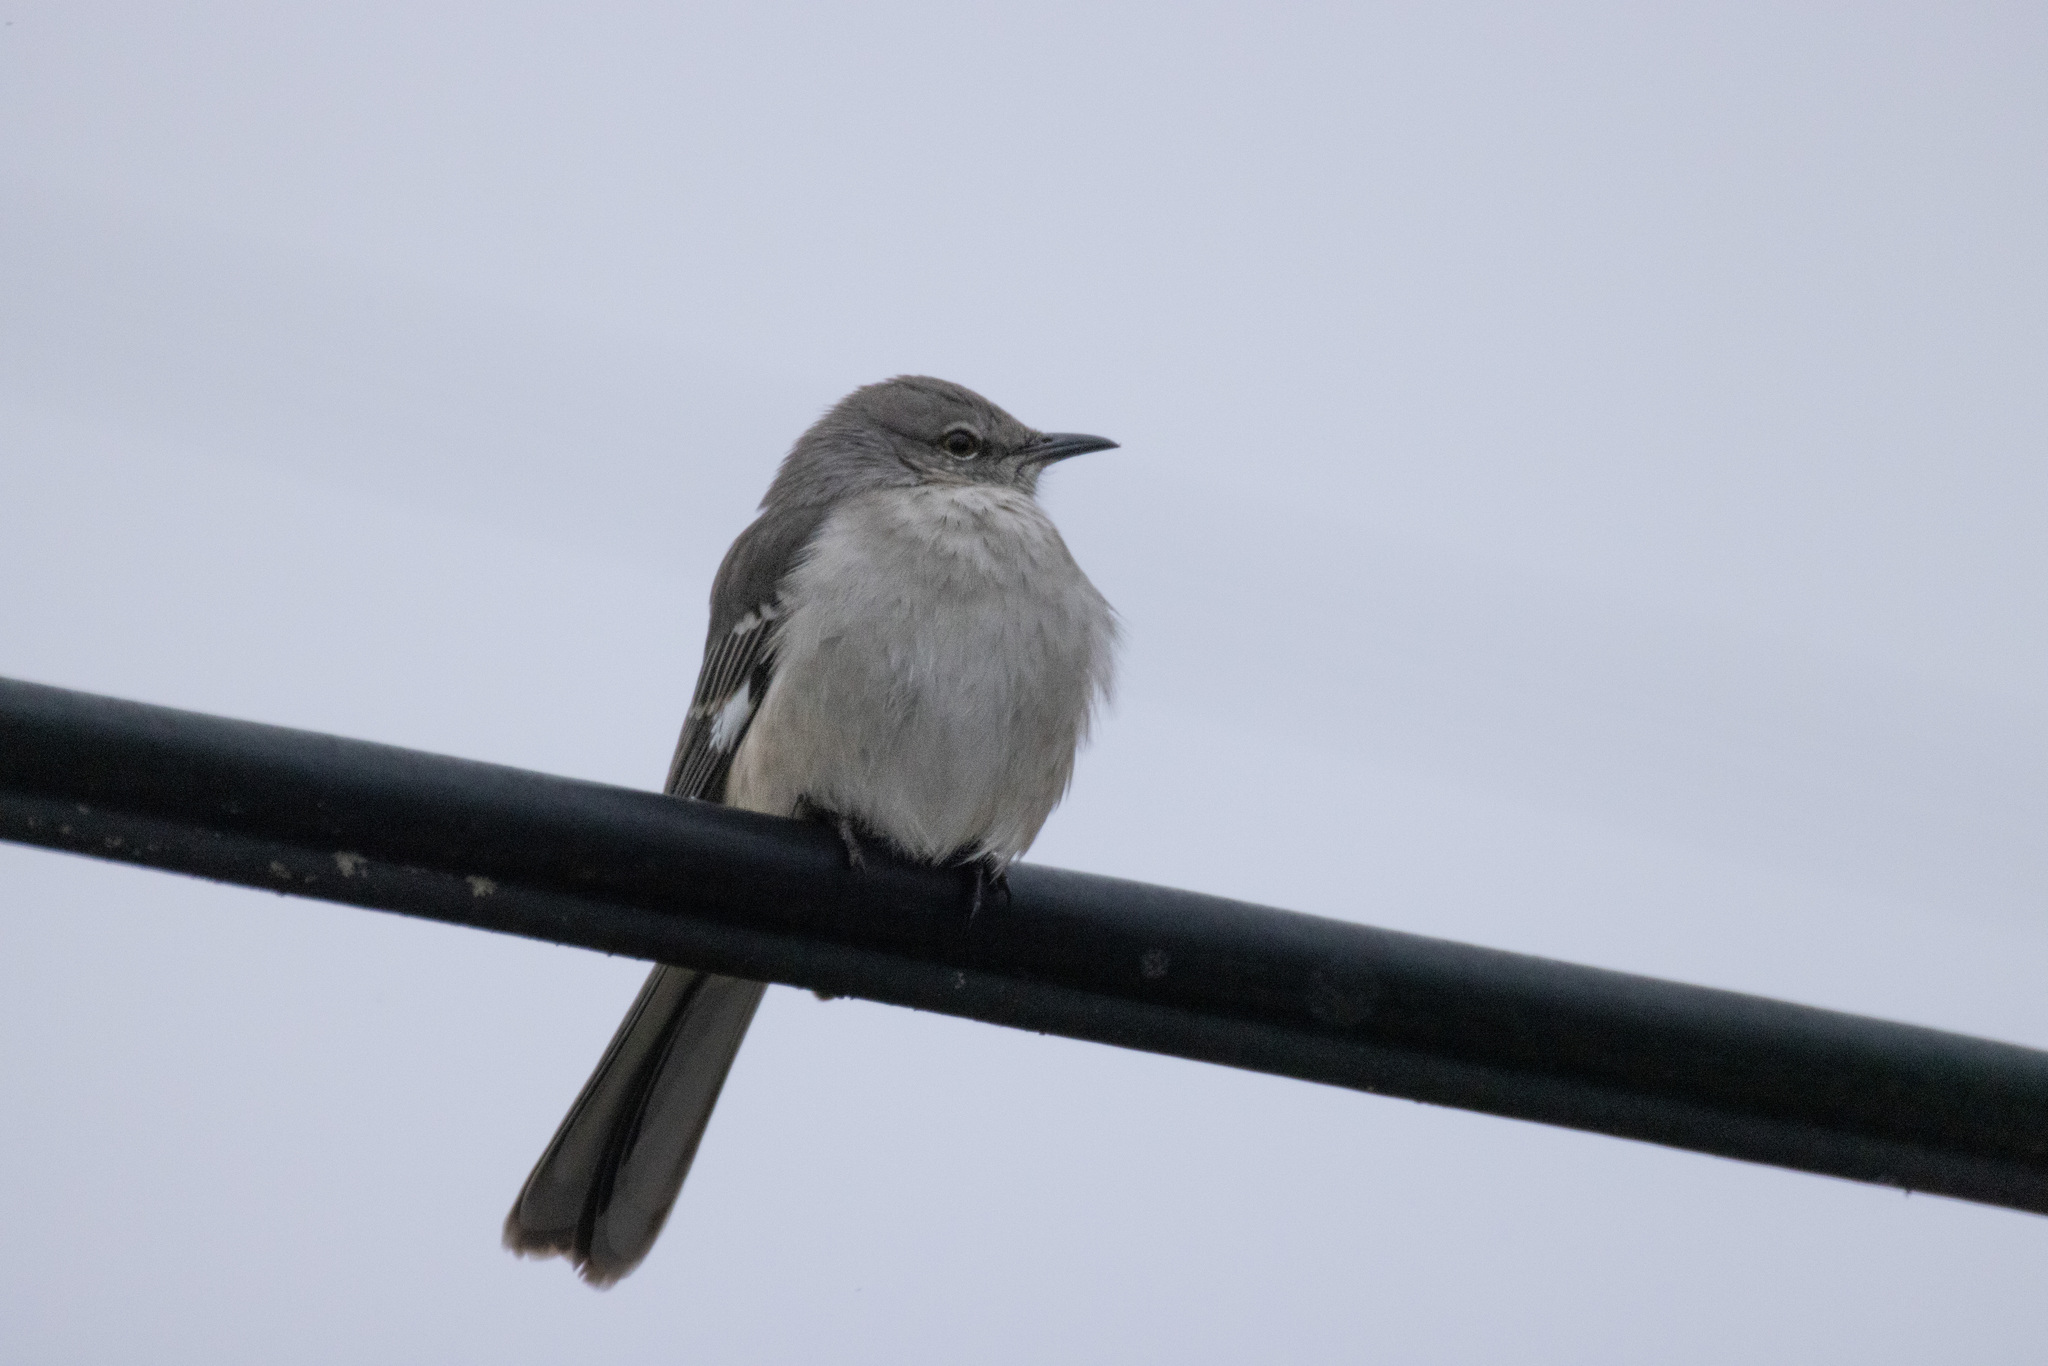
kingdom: Animalia
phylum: Chordata
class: Aves
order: Passeriformes
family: Mimidae
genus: Mimus
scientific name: Mimus polyglottos
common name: Northern mockingbird
